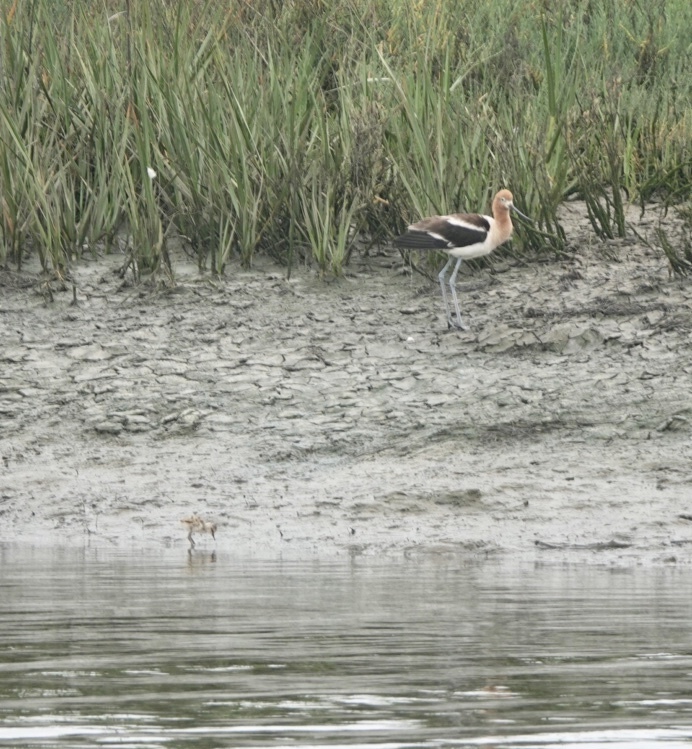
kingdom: Animalia
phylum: Chordata
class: Aves
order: Charadriiformes
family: Recurvirostridae
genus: Recurvirostra
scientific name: Recurvirostra americana
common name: American avocet
